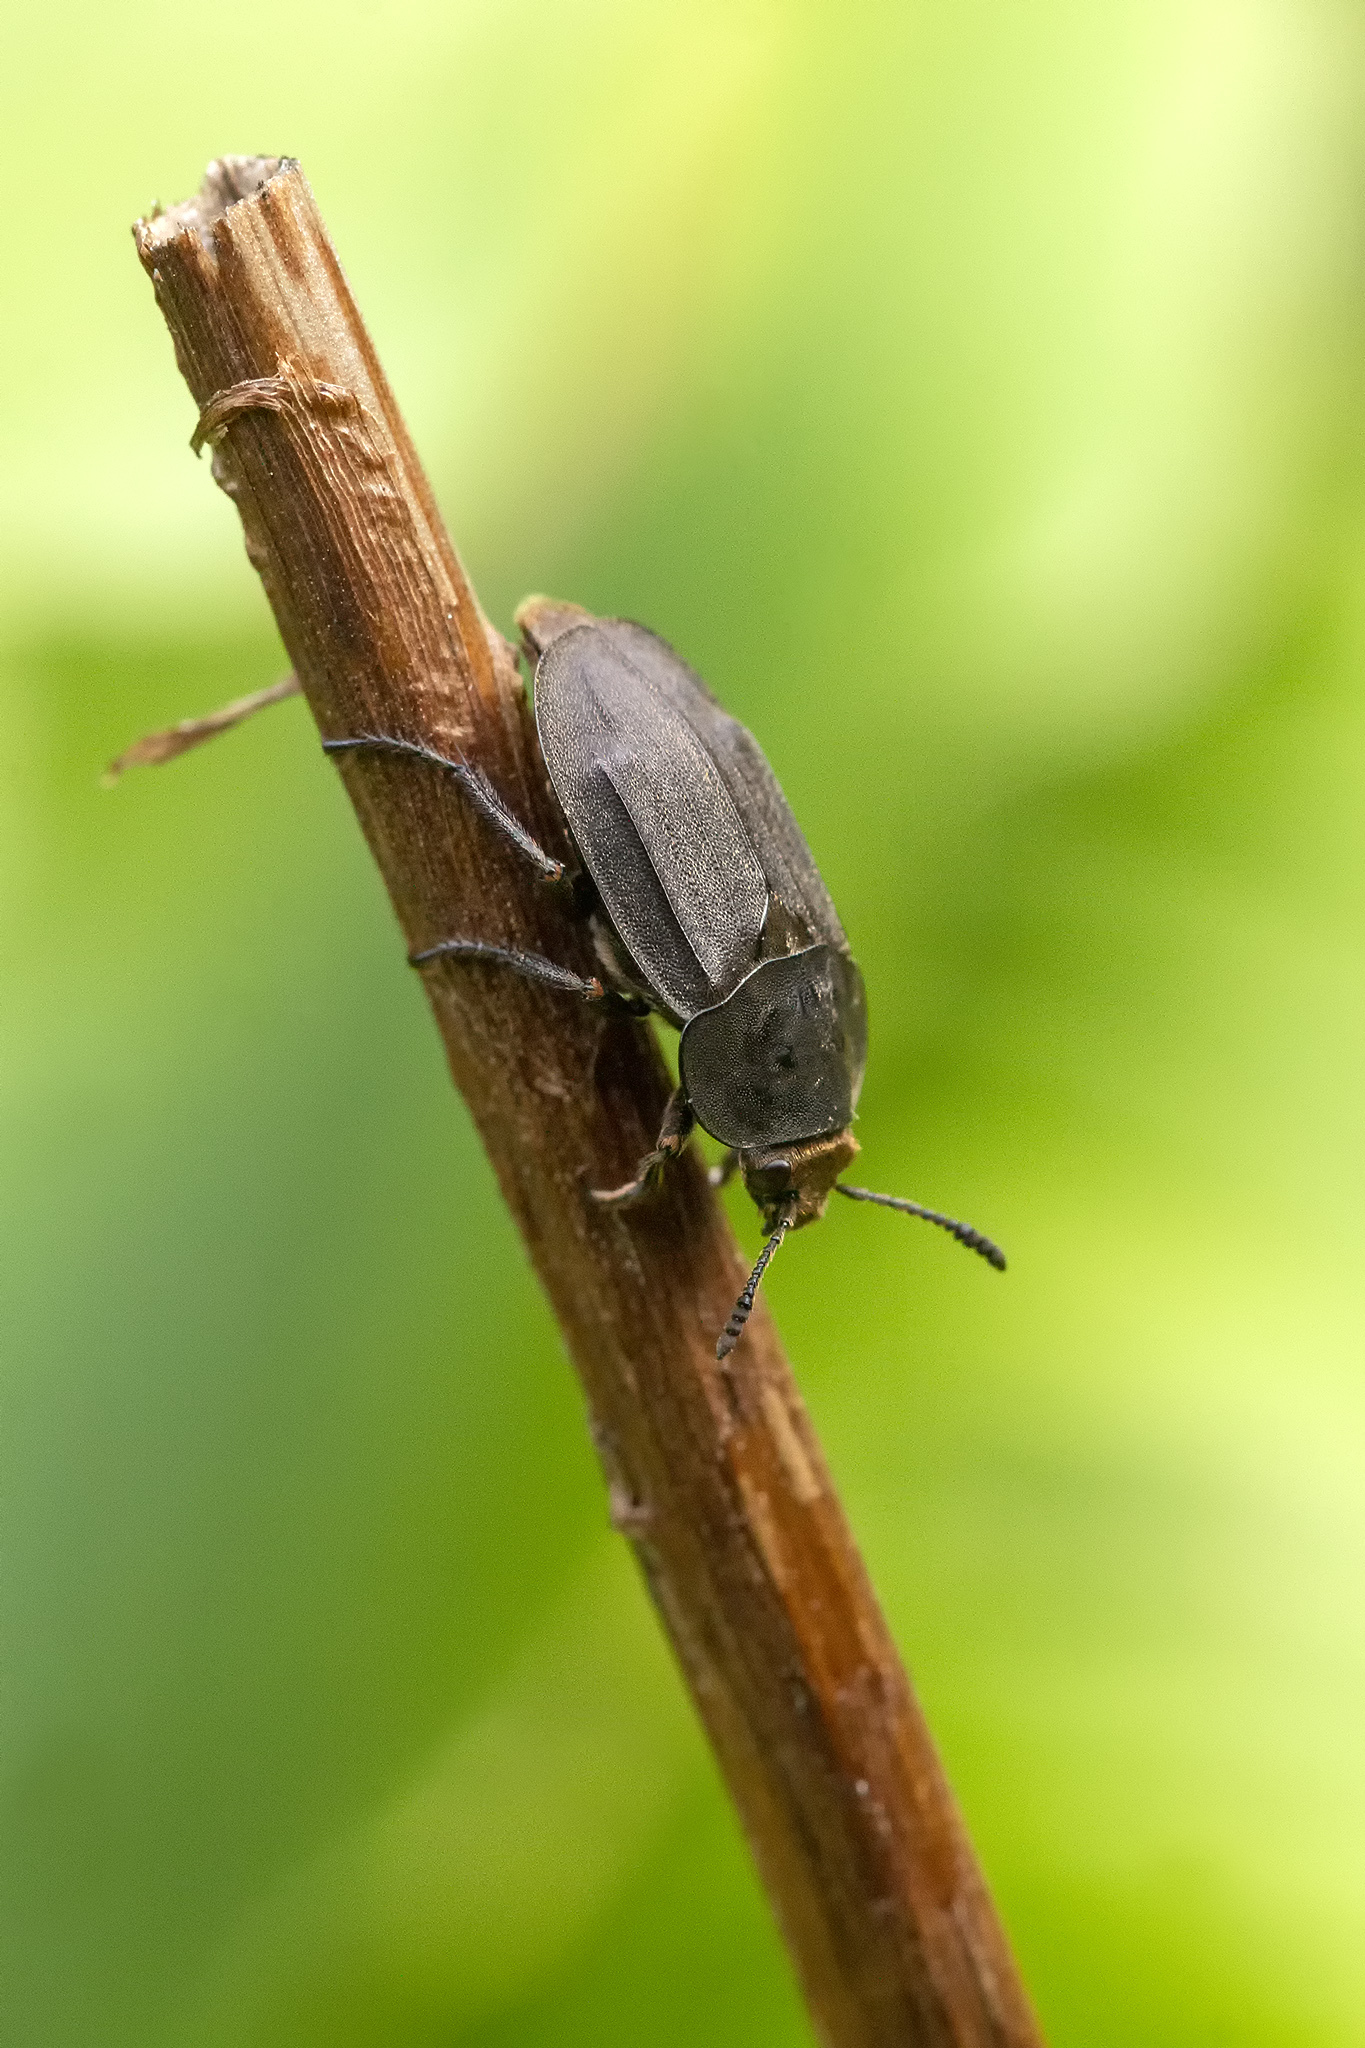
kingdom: Animalia
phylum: Arthropoda
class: Insecta
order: Coleoptera
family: Staphylinidae
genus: Aclypea
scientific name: Aclypea opaca
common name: Silphid beetle
